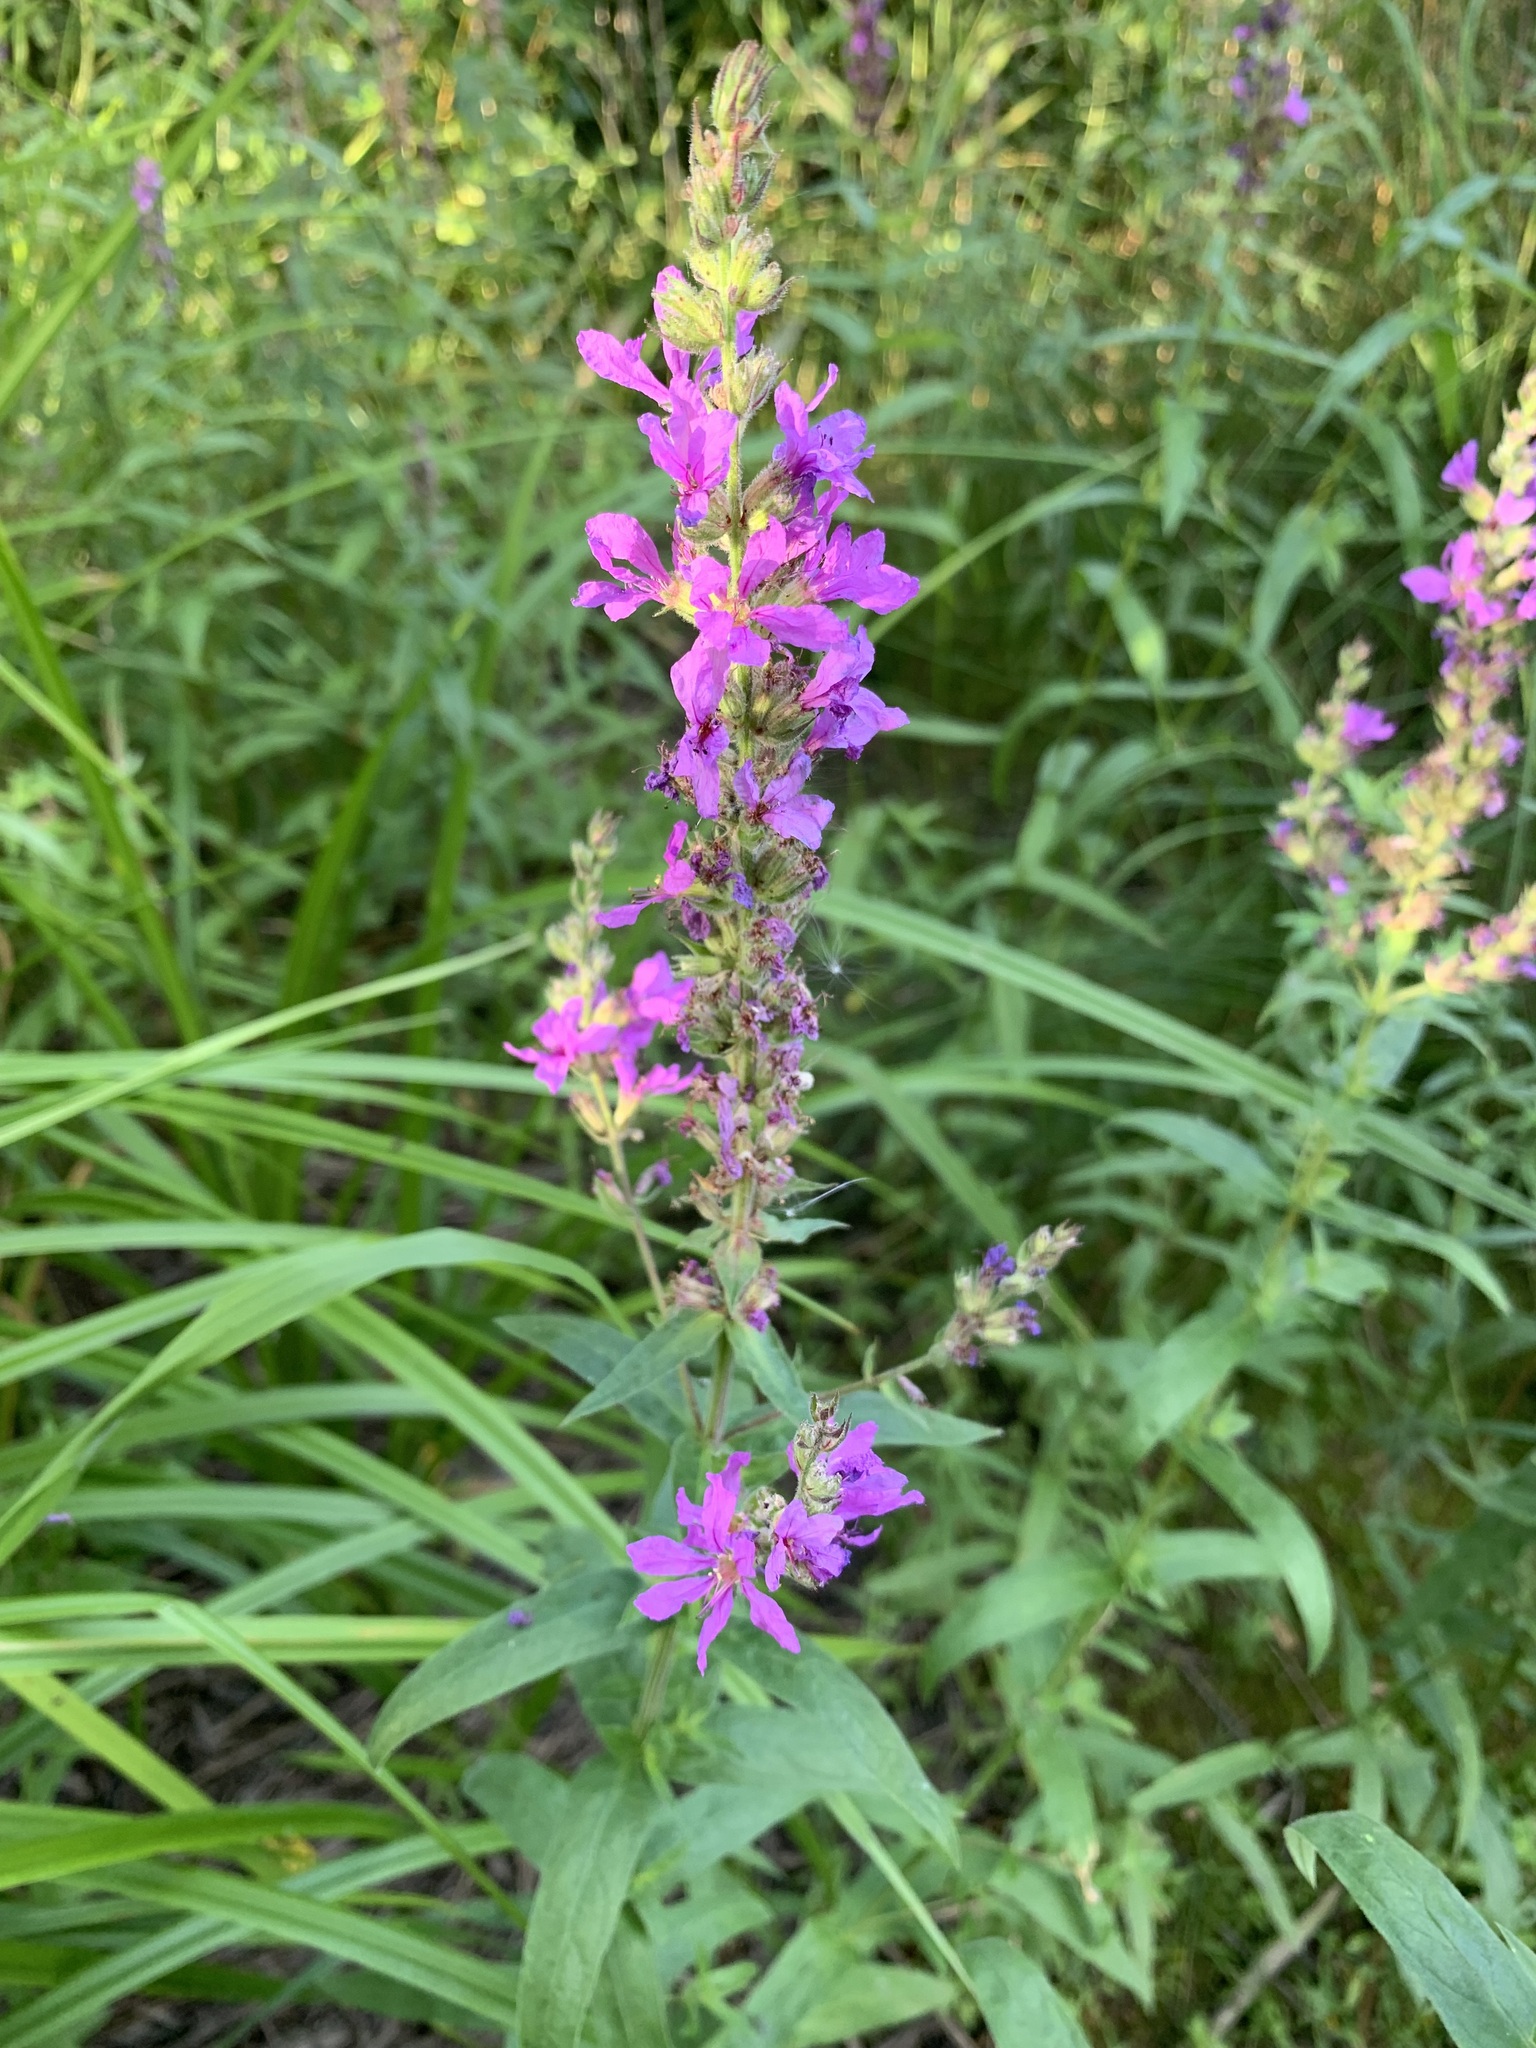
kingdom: Plantae
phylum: Tracheophyta
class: Magnoliopsida
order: Myrtales
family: Lythraceae
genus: Lythrum
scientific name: Lythrum salicaria
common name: Purple loosestrife
